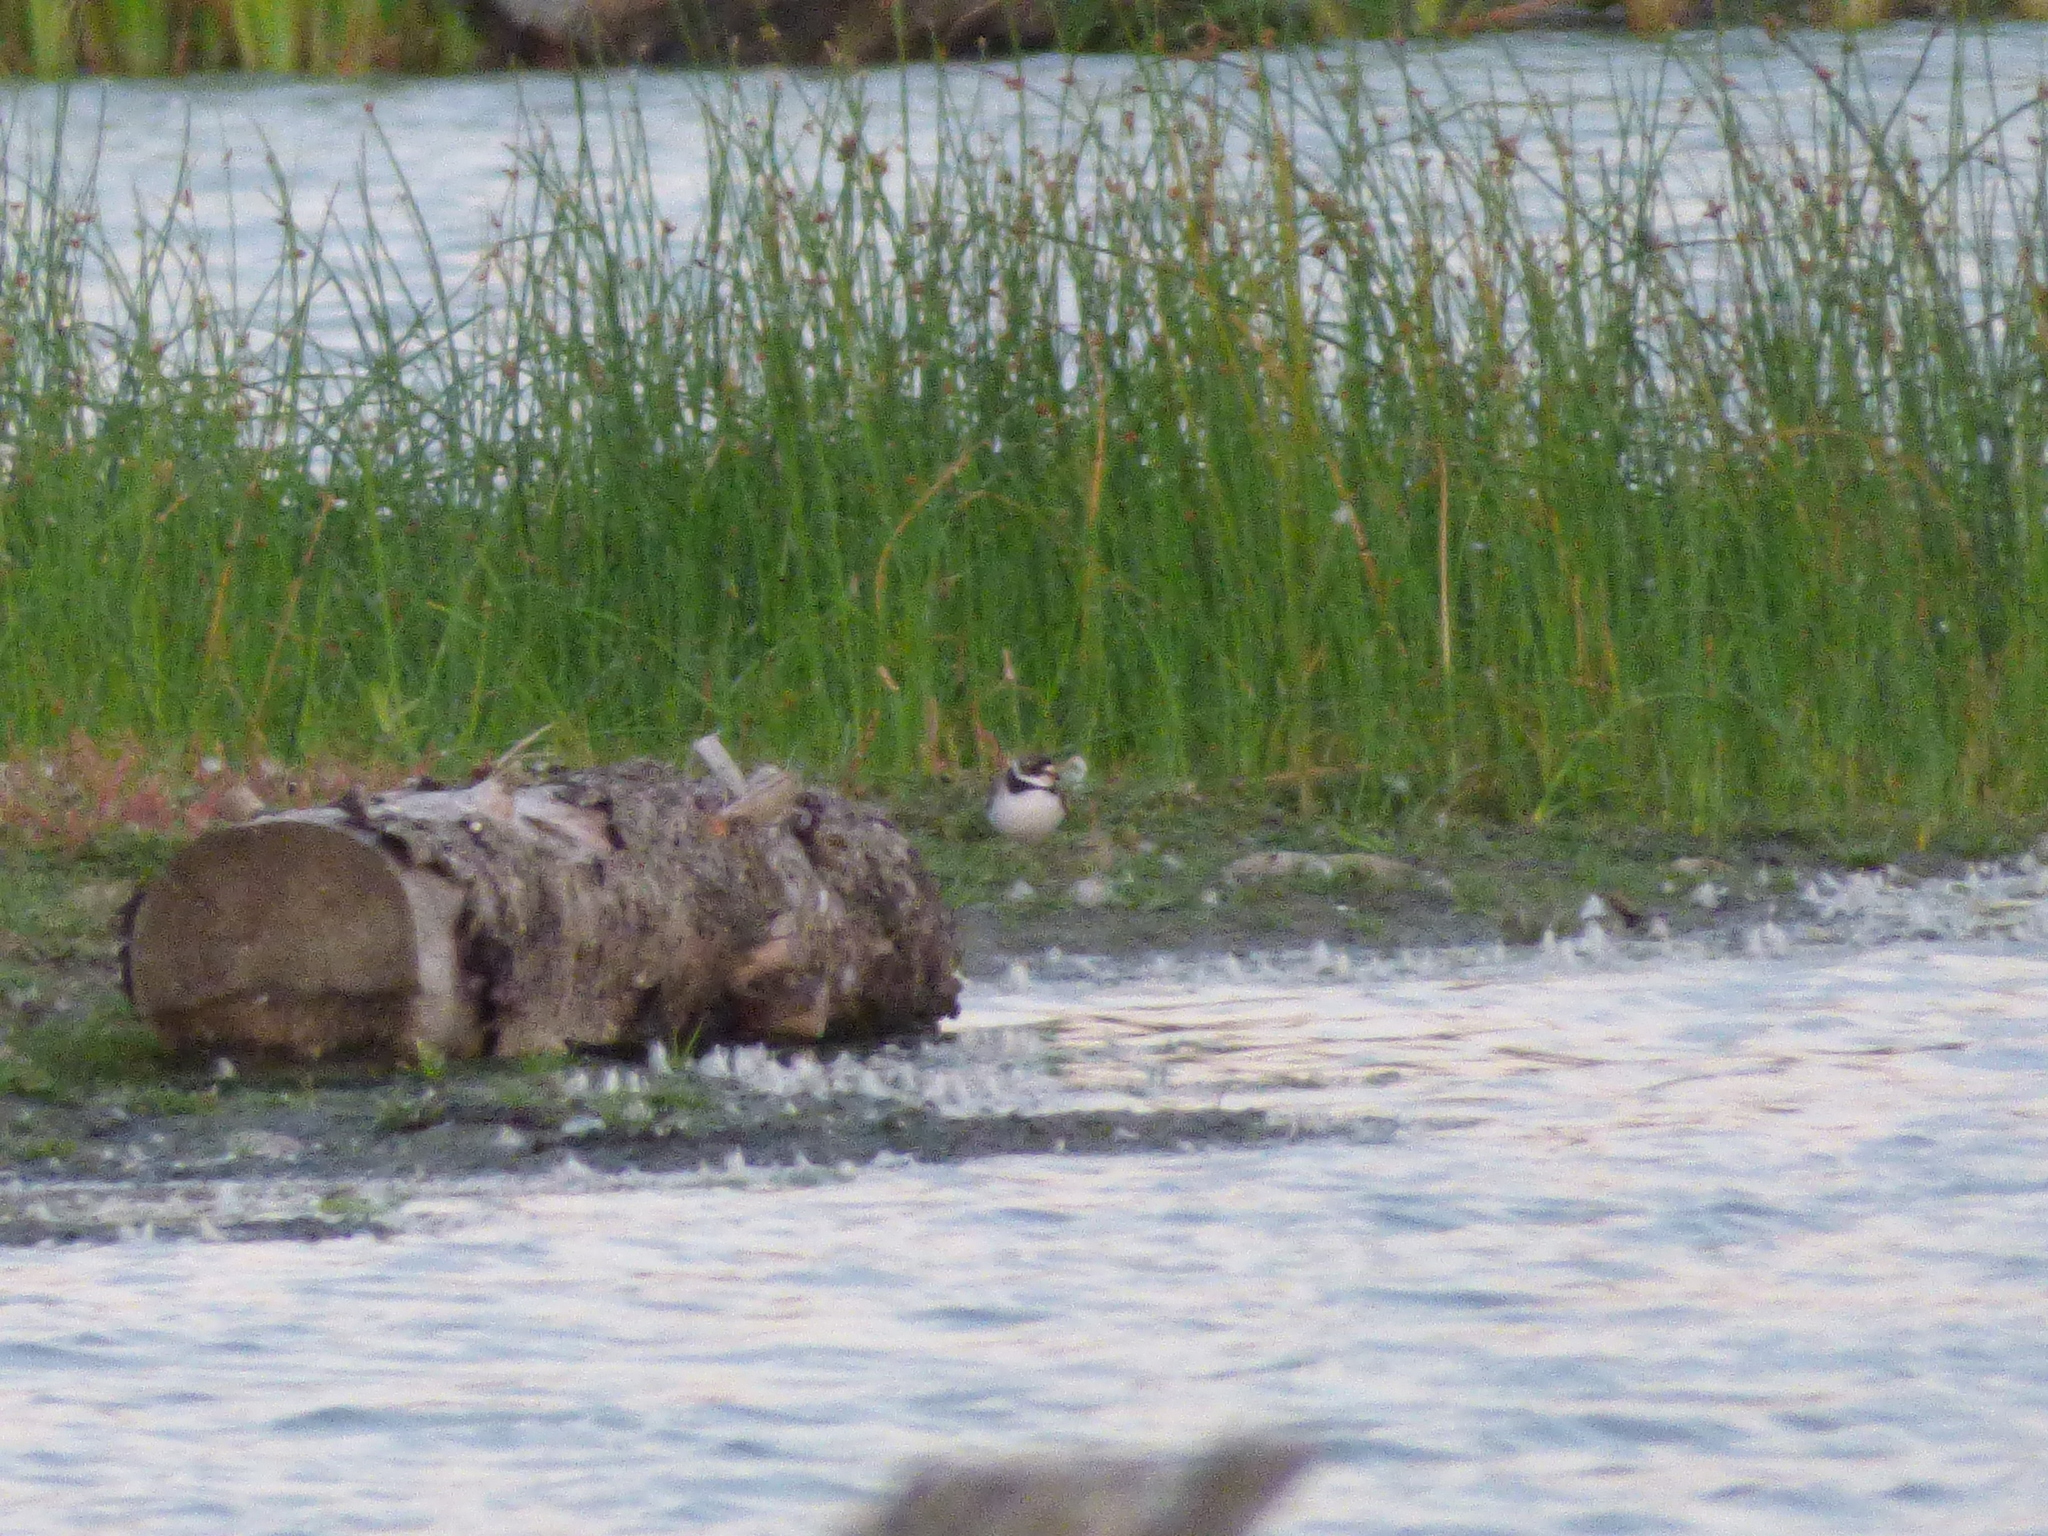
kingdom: Animalia
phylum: Chordata
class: Aves
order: Charadriiformes
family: Charadriidae
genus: Charadrius
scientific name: Charadrius semipalmatus
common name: Semipalmated plover
